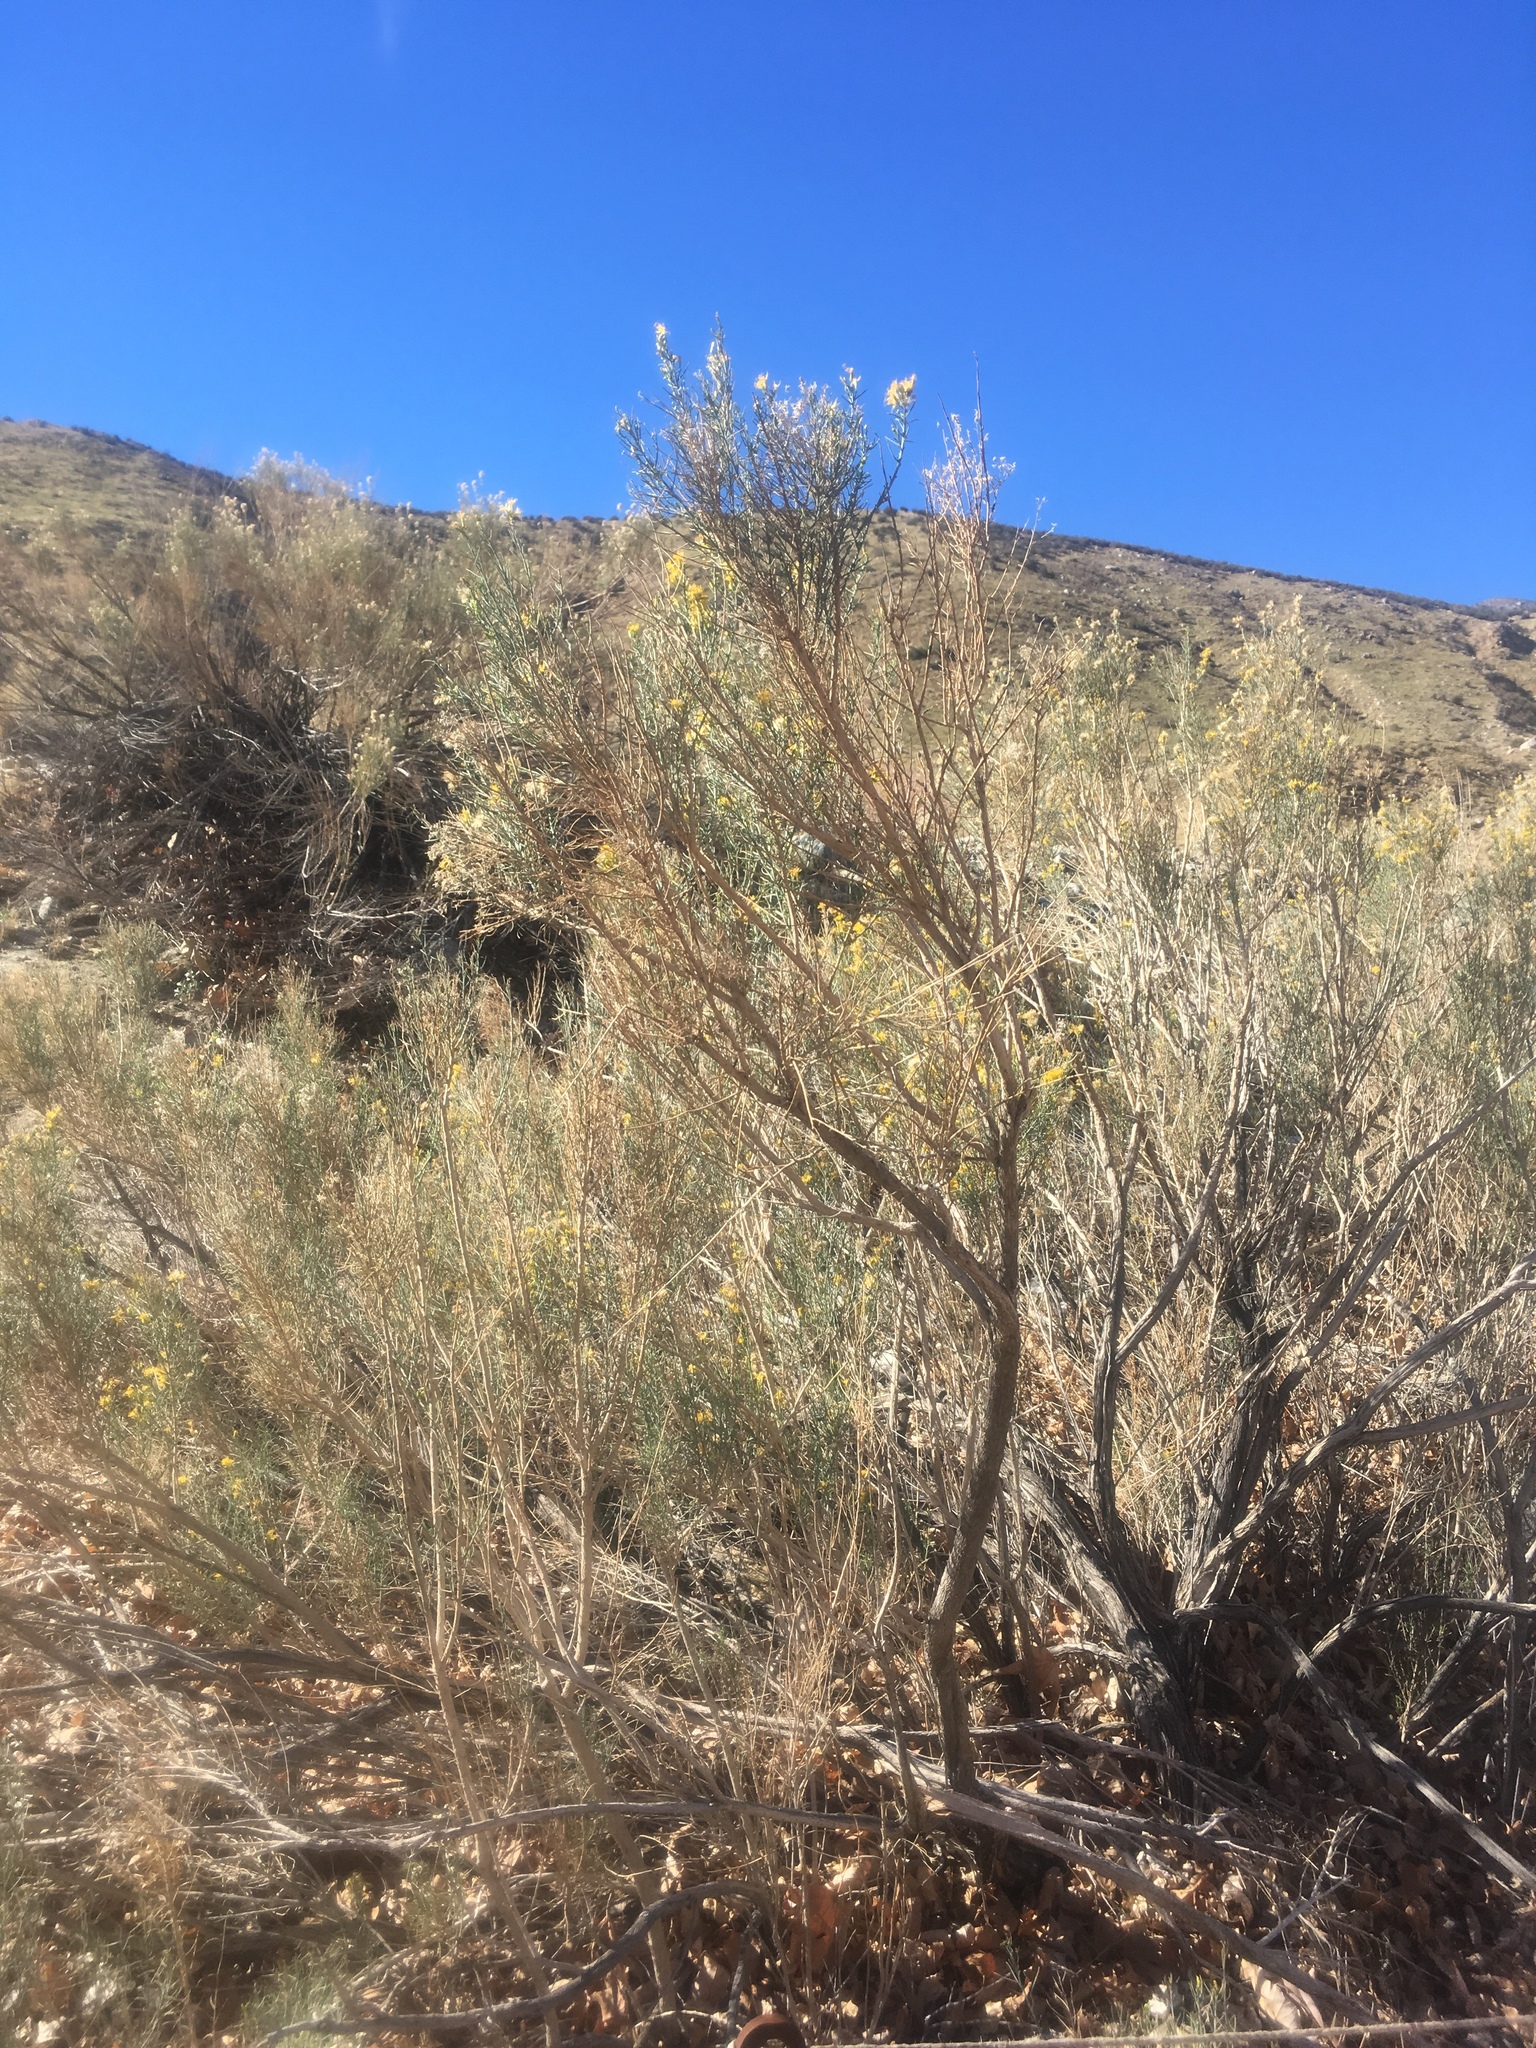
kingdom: Plantae
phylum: Tracheophyta
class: Magnoliopsida
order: Asterales
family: Asteraceae
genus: Ericameria
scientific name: Ericameria paniculata
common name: Punctate rabbitbrush
